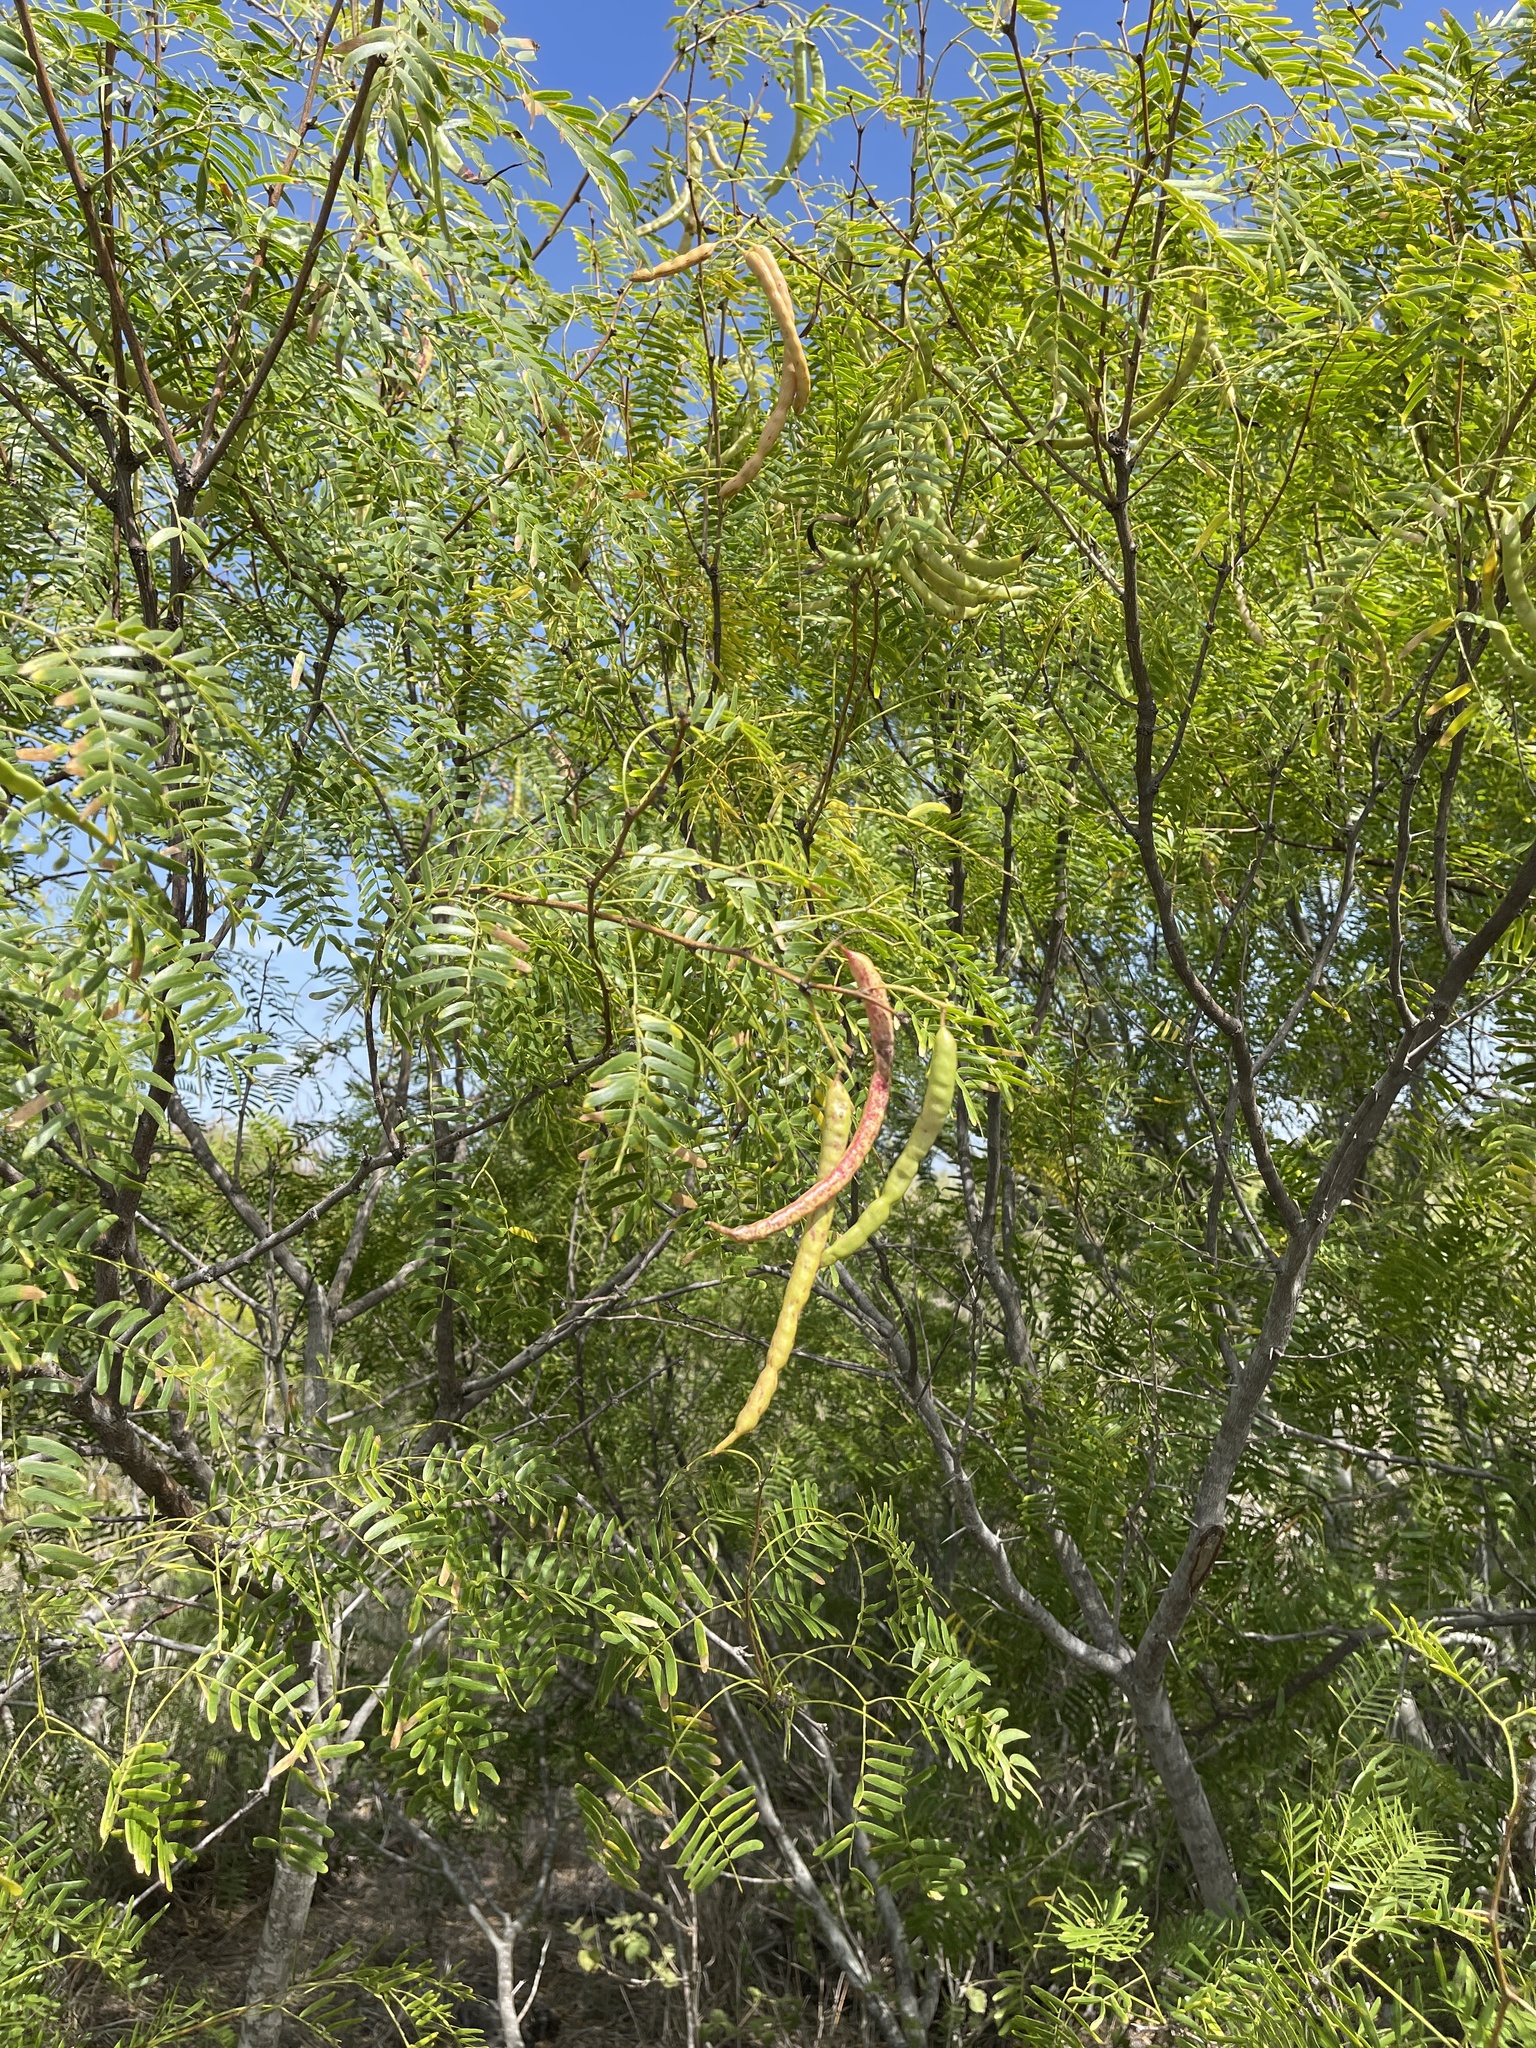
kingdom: Plantae
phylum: Tracheophyta
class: Magnoliopsida
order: Fabales
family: Fabaceae
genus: Prosopis
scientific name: Prosopis glandulosa
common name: Honey mesquite
